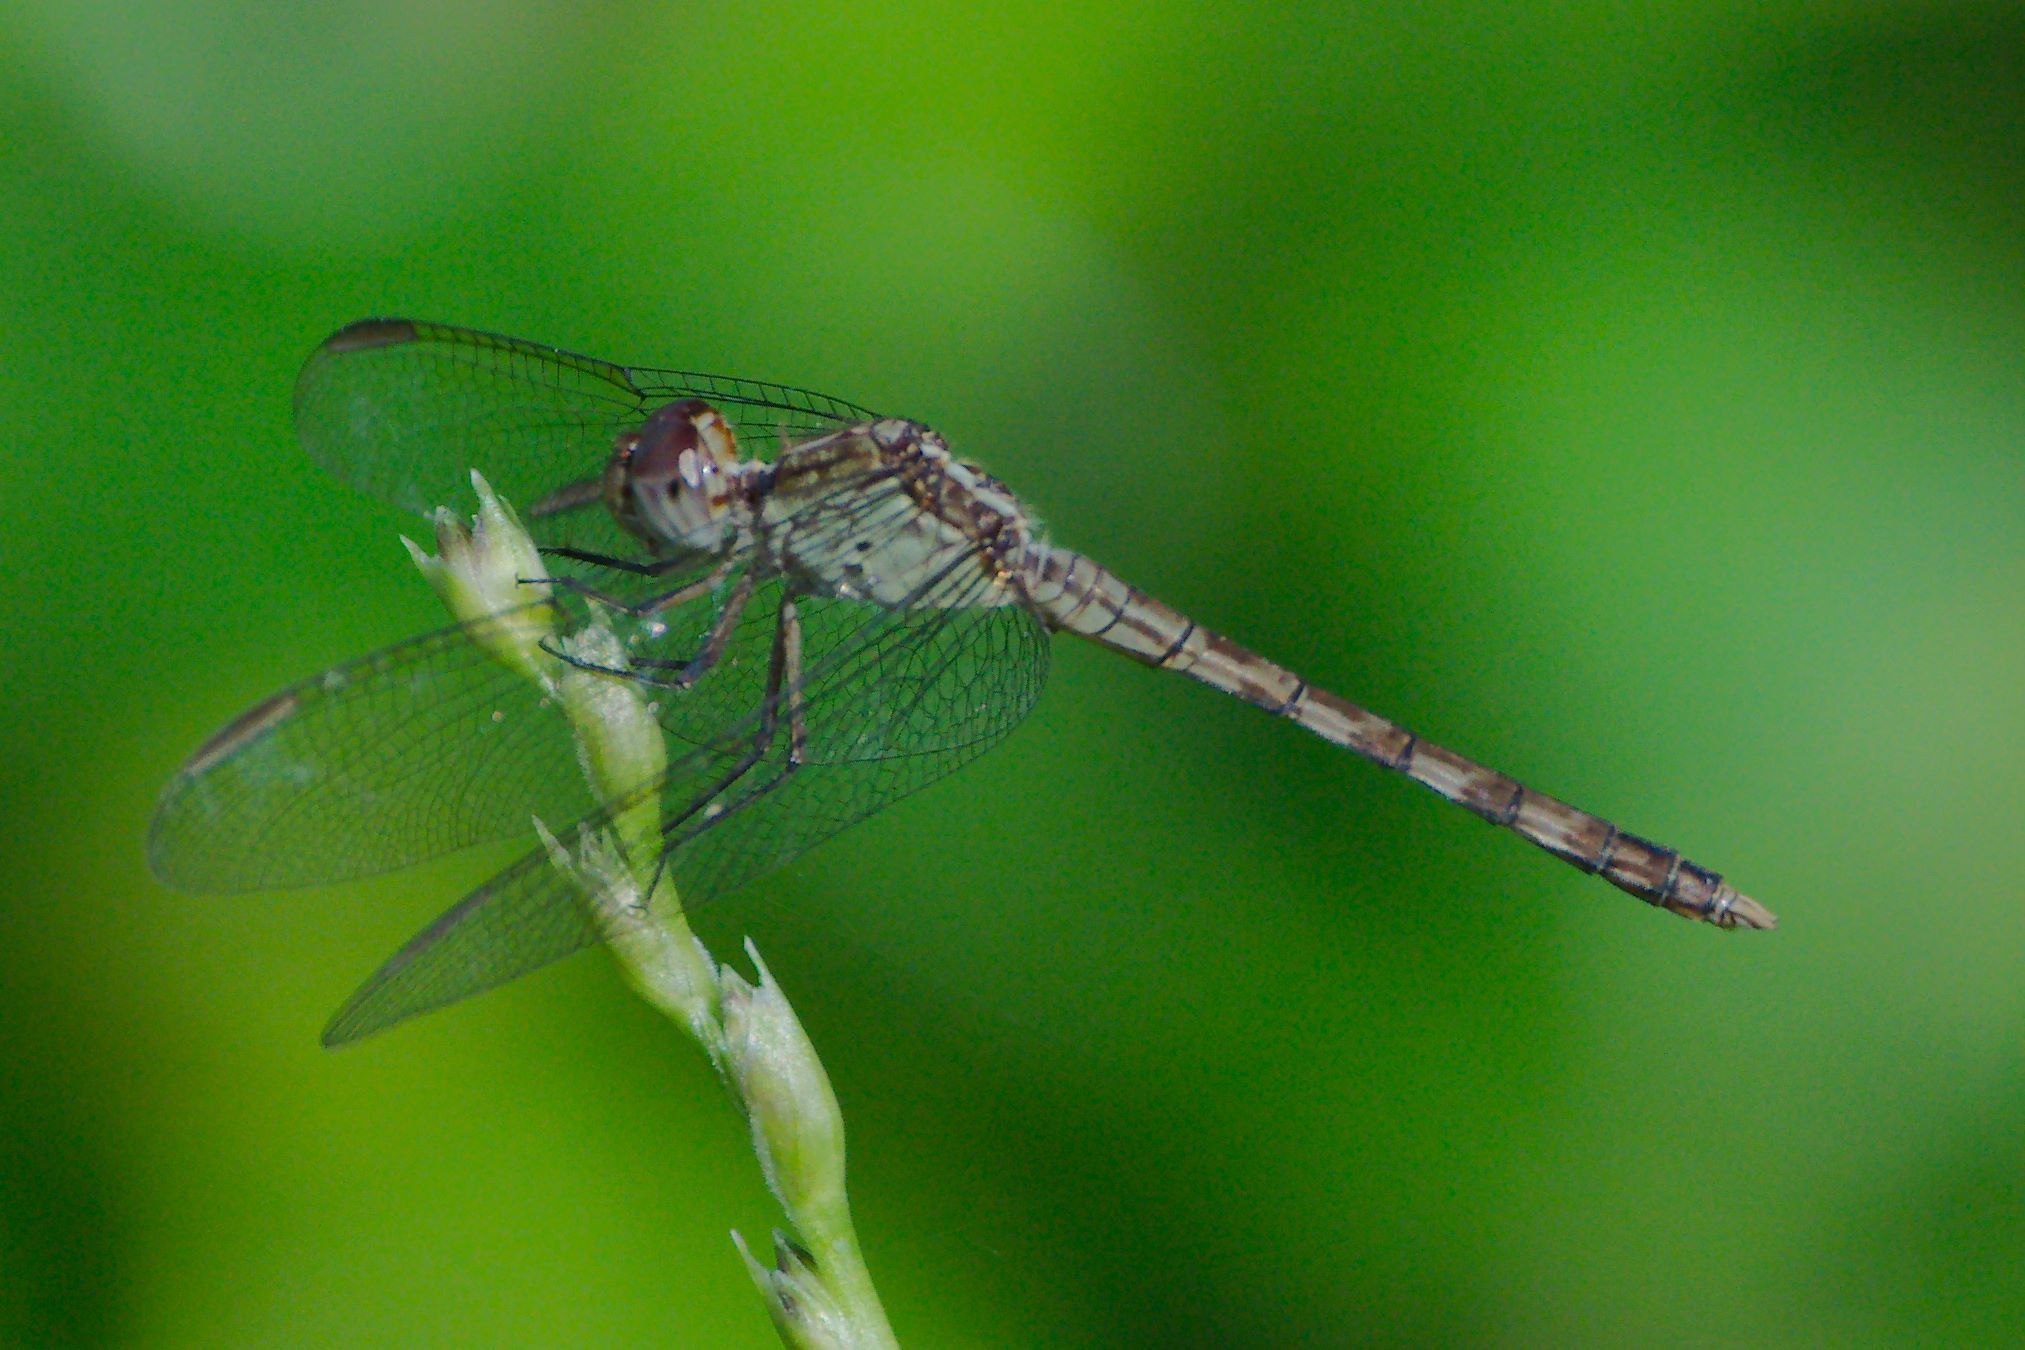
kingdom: Animalia
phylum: Arthropoda
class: Insecta
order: Odonata
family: Libellulidae
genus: Erythrodiplax
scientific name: Erythrodiplax umbrata
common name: Band-winged dragonlet
